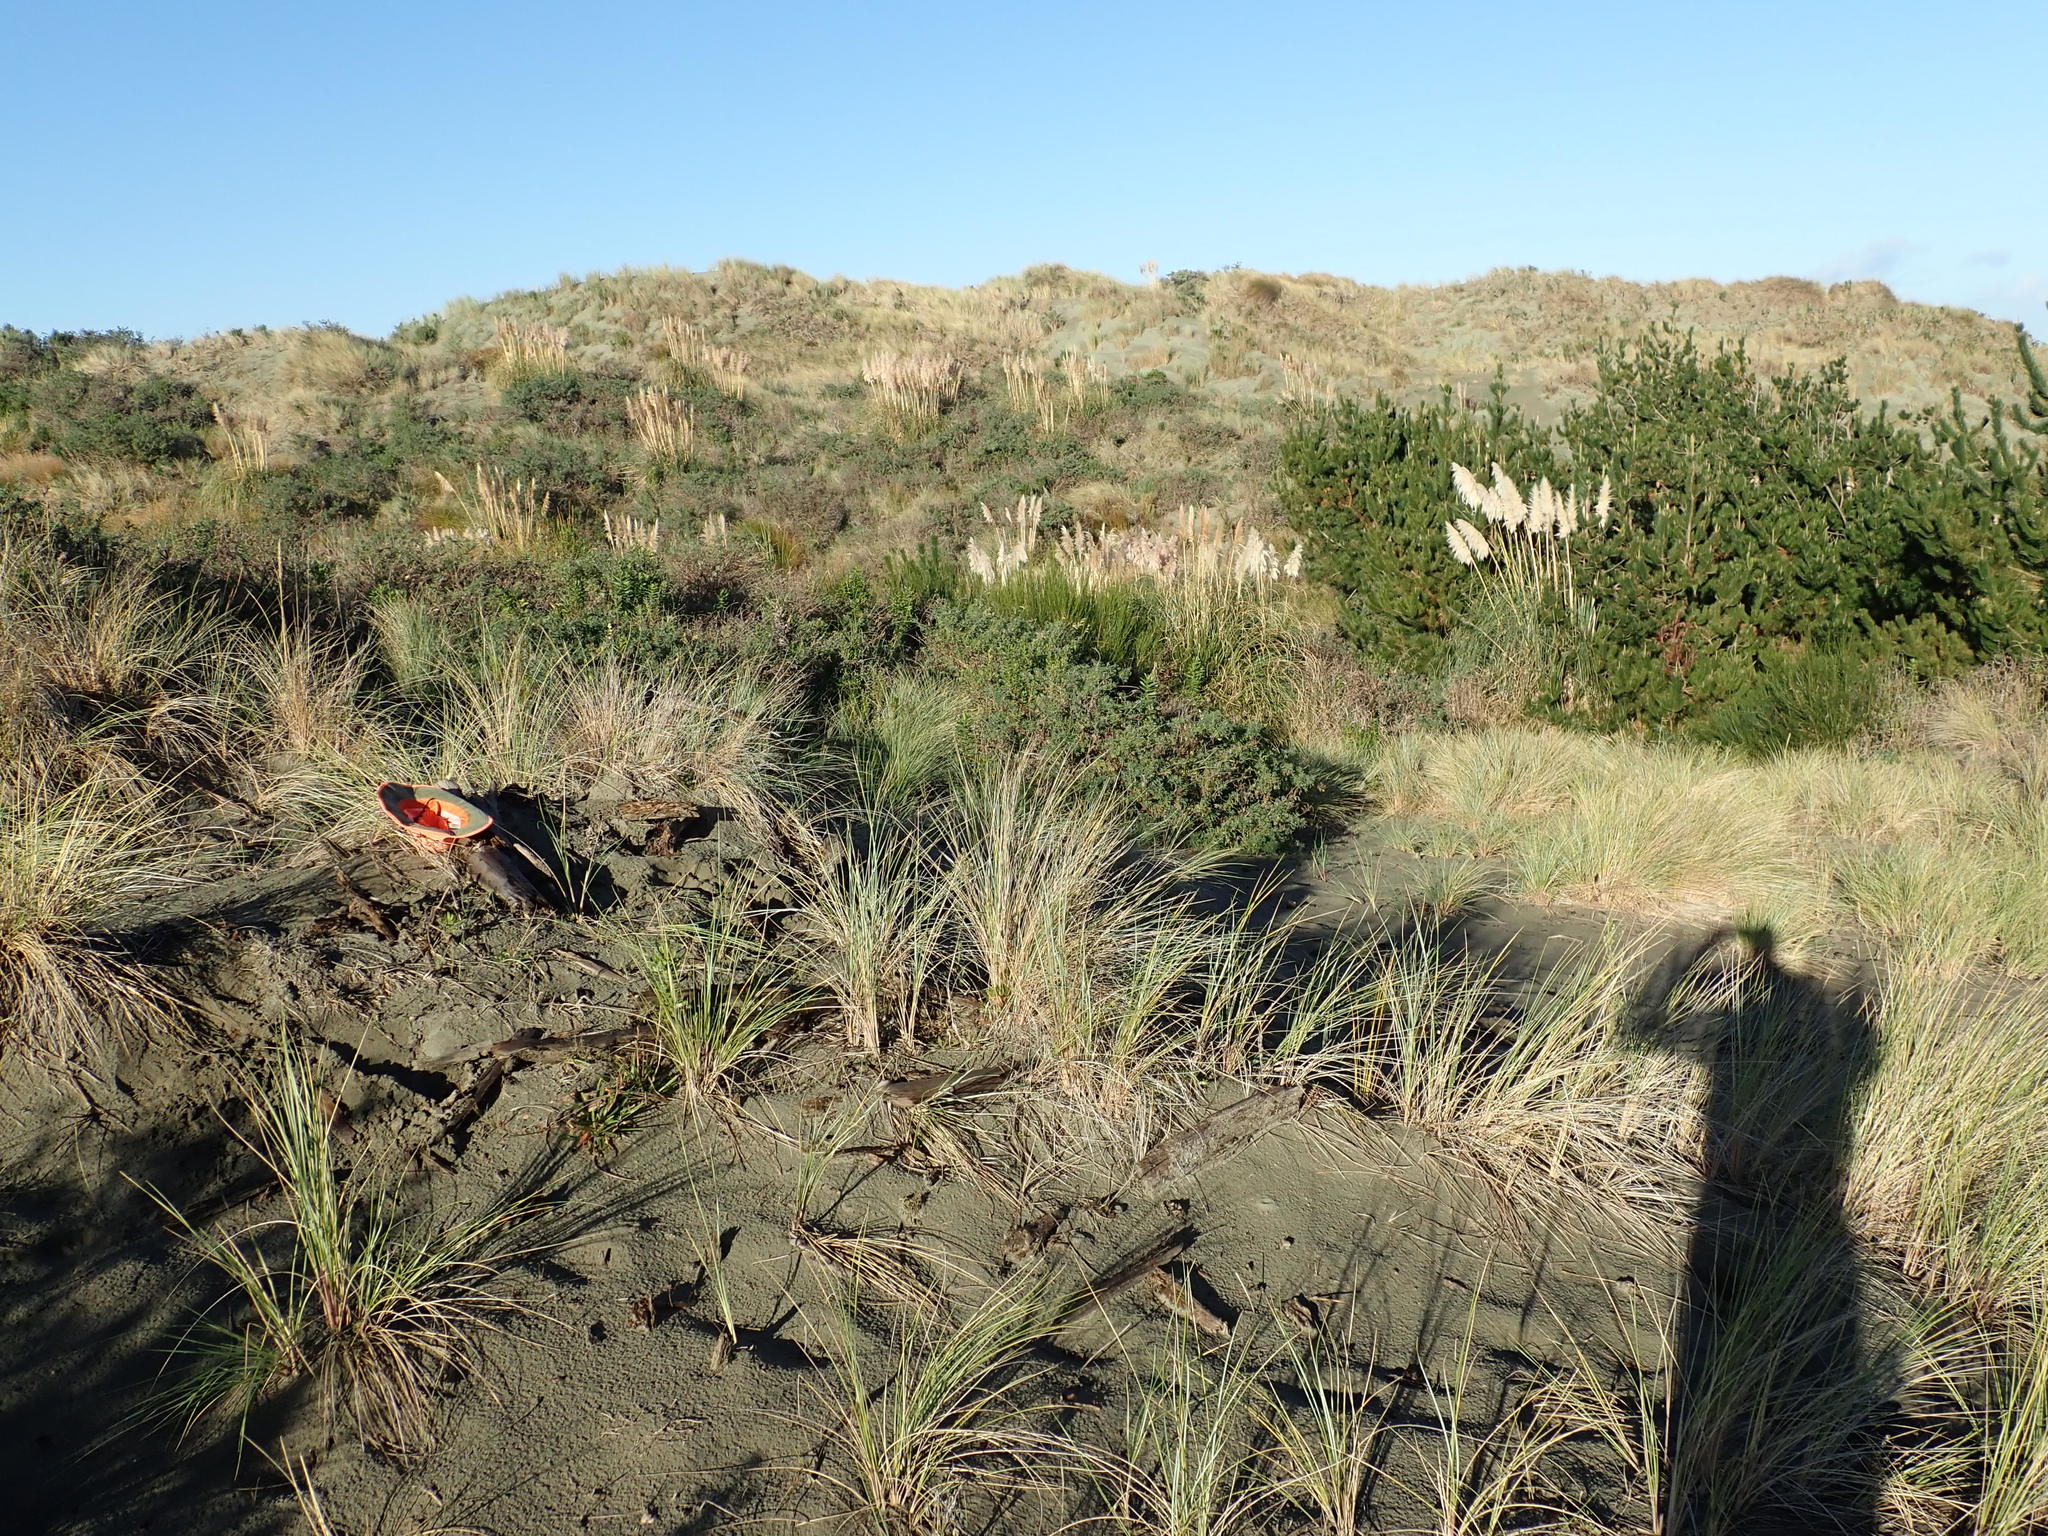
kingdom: Animalia
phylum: Arthropoda
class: Arachnida
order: Araneae
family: Theridiidae
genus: Latrodectus
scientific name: Latrodectus katipo
